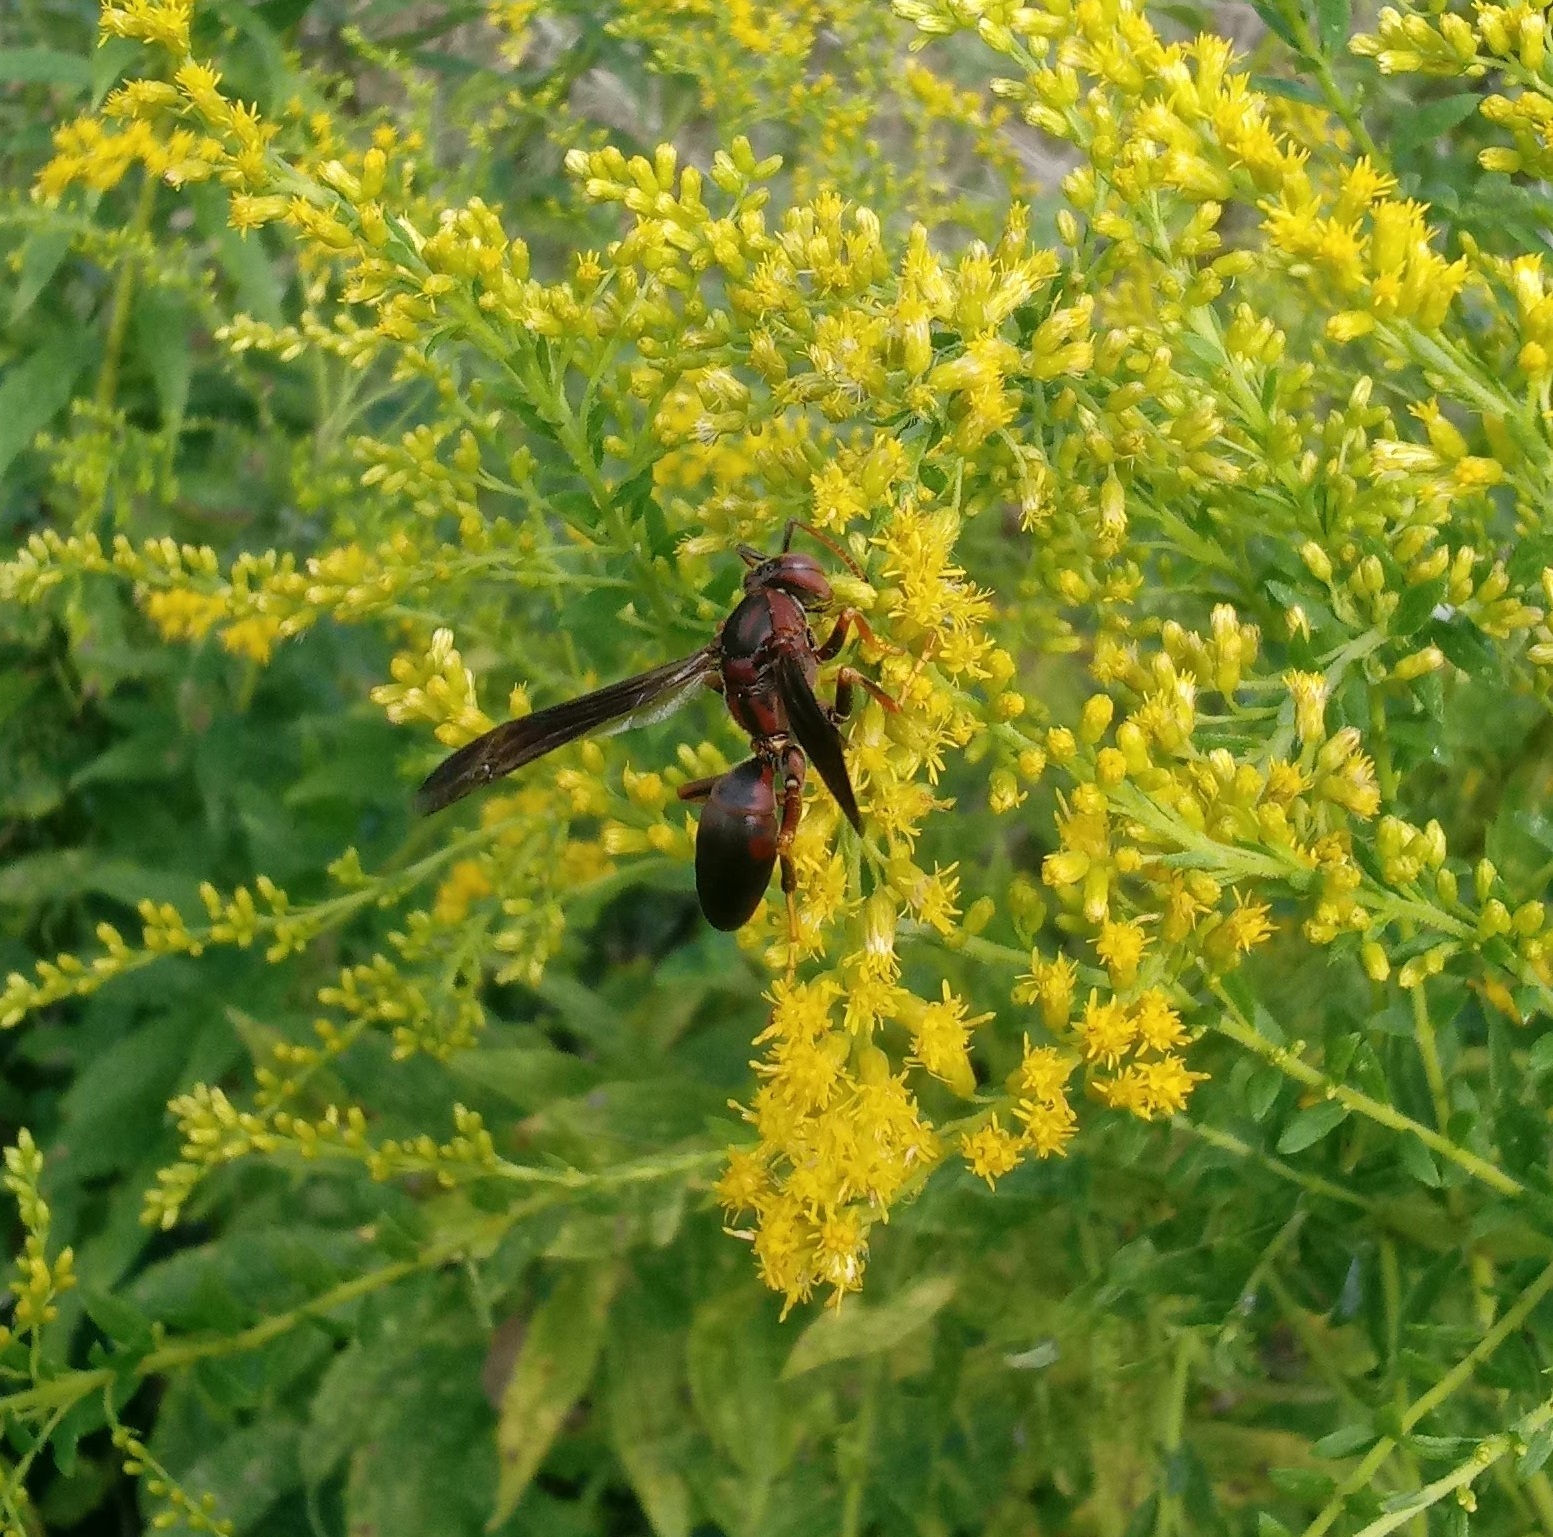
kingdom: Animalia
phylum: Arthropoda
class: Insecta
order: Hymenoptera
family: Eumenidae
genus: Polistes
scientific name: Polistes fuscatus
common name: Dark paper wasp
